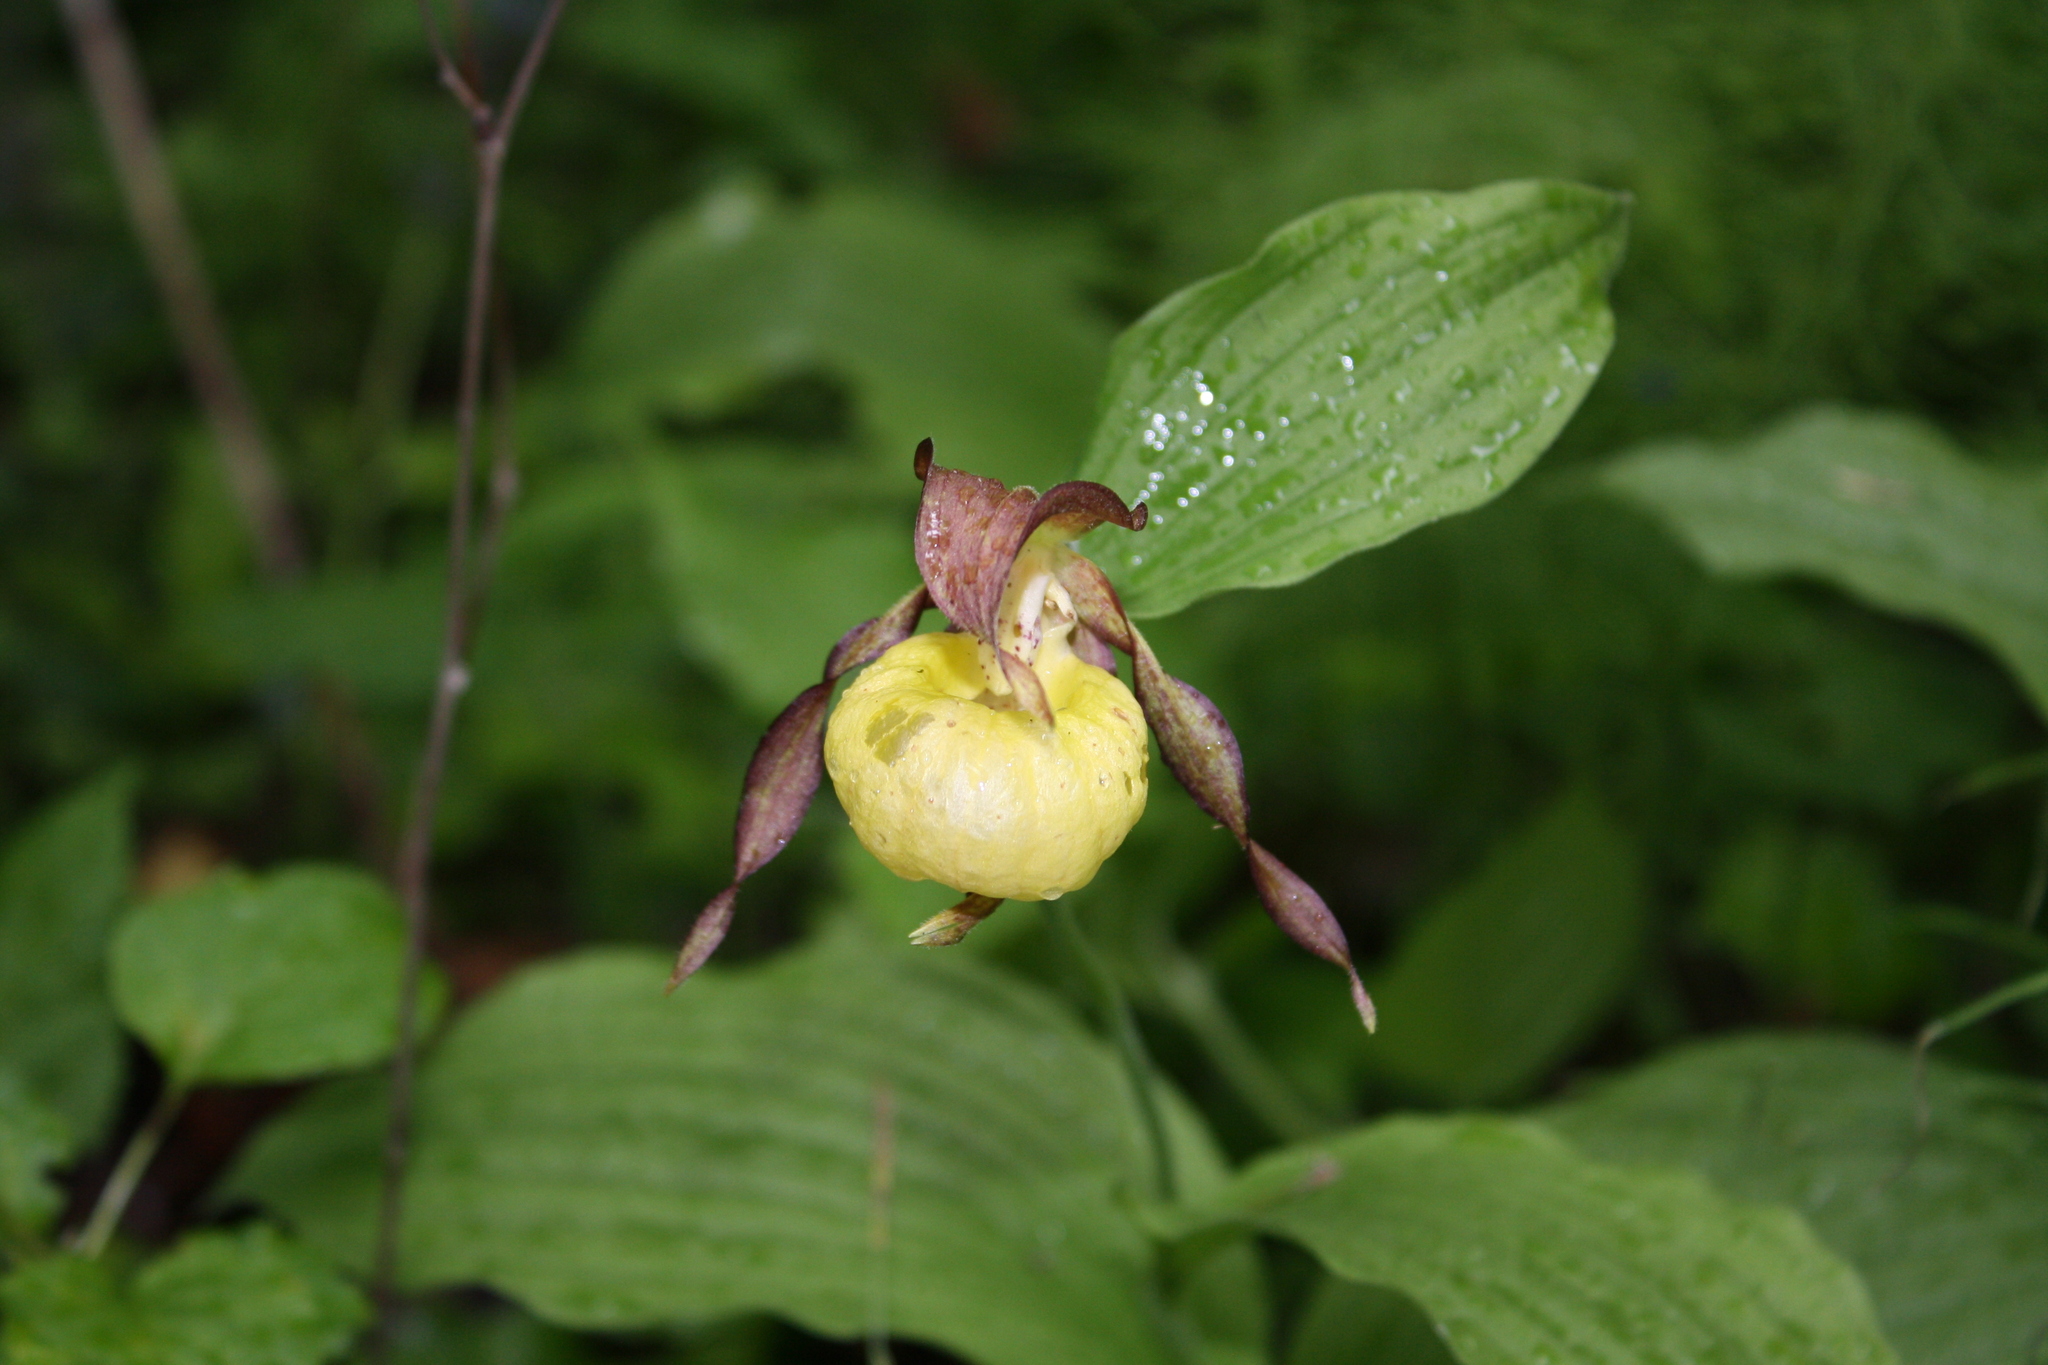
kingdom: Plantae
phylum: Tracheophyta
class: Liliopsida
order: Asparagales
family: Orchidaceae
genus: Cypripedium
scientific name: Cypripedium calceolus
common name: Lady's-slipper
